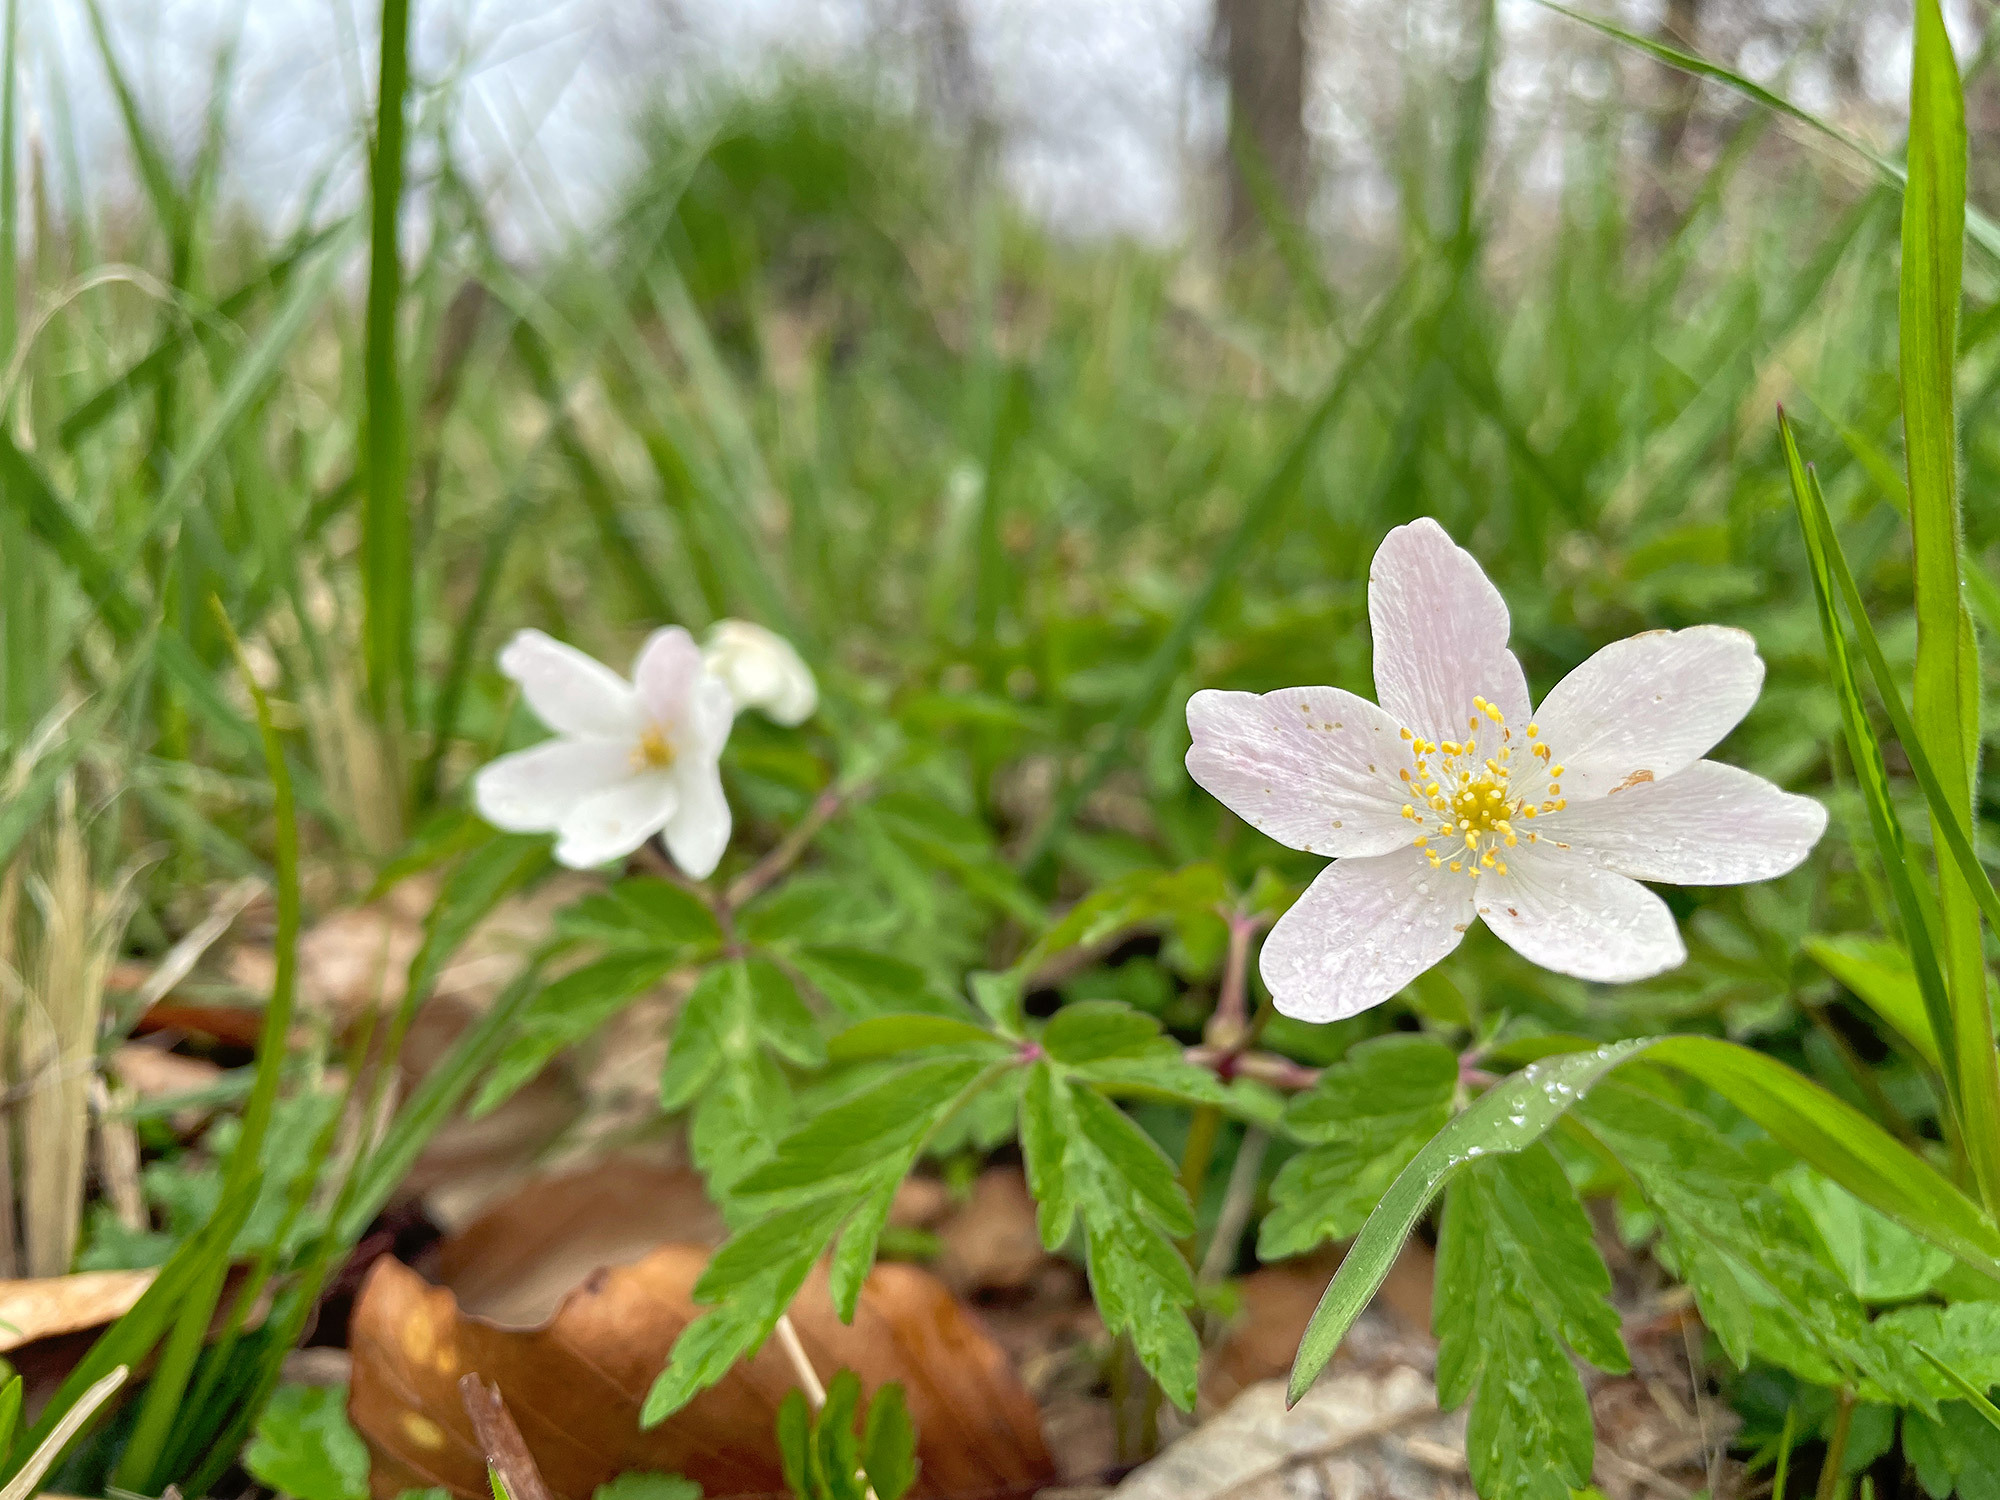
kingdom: Plantae
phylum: Tracheophyta
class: Magnoliopsida
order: Ranunculales
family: Ranunculaceae
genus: Anemone
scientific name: Anemone nemorosa
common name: Wood anemone
